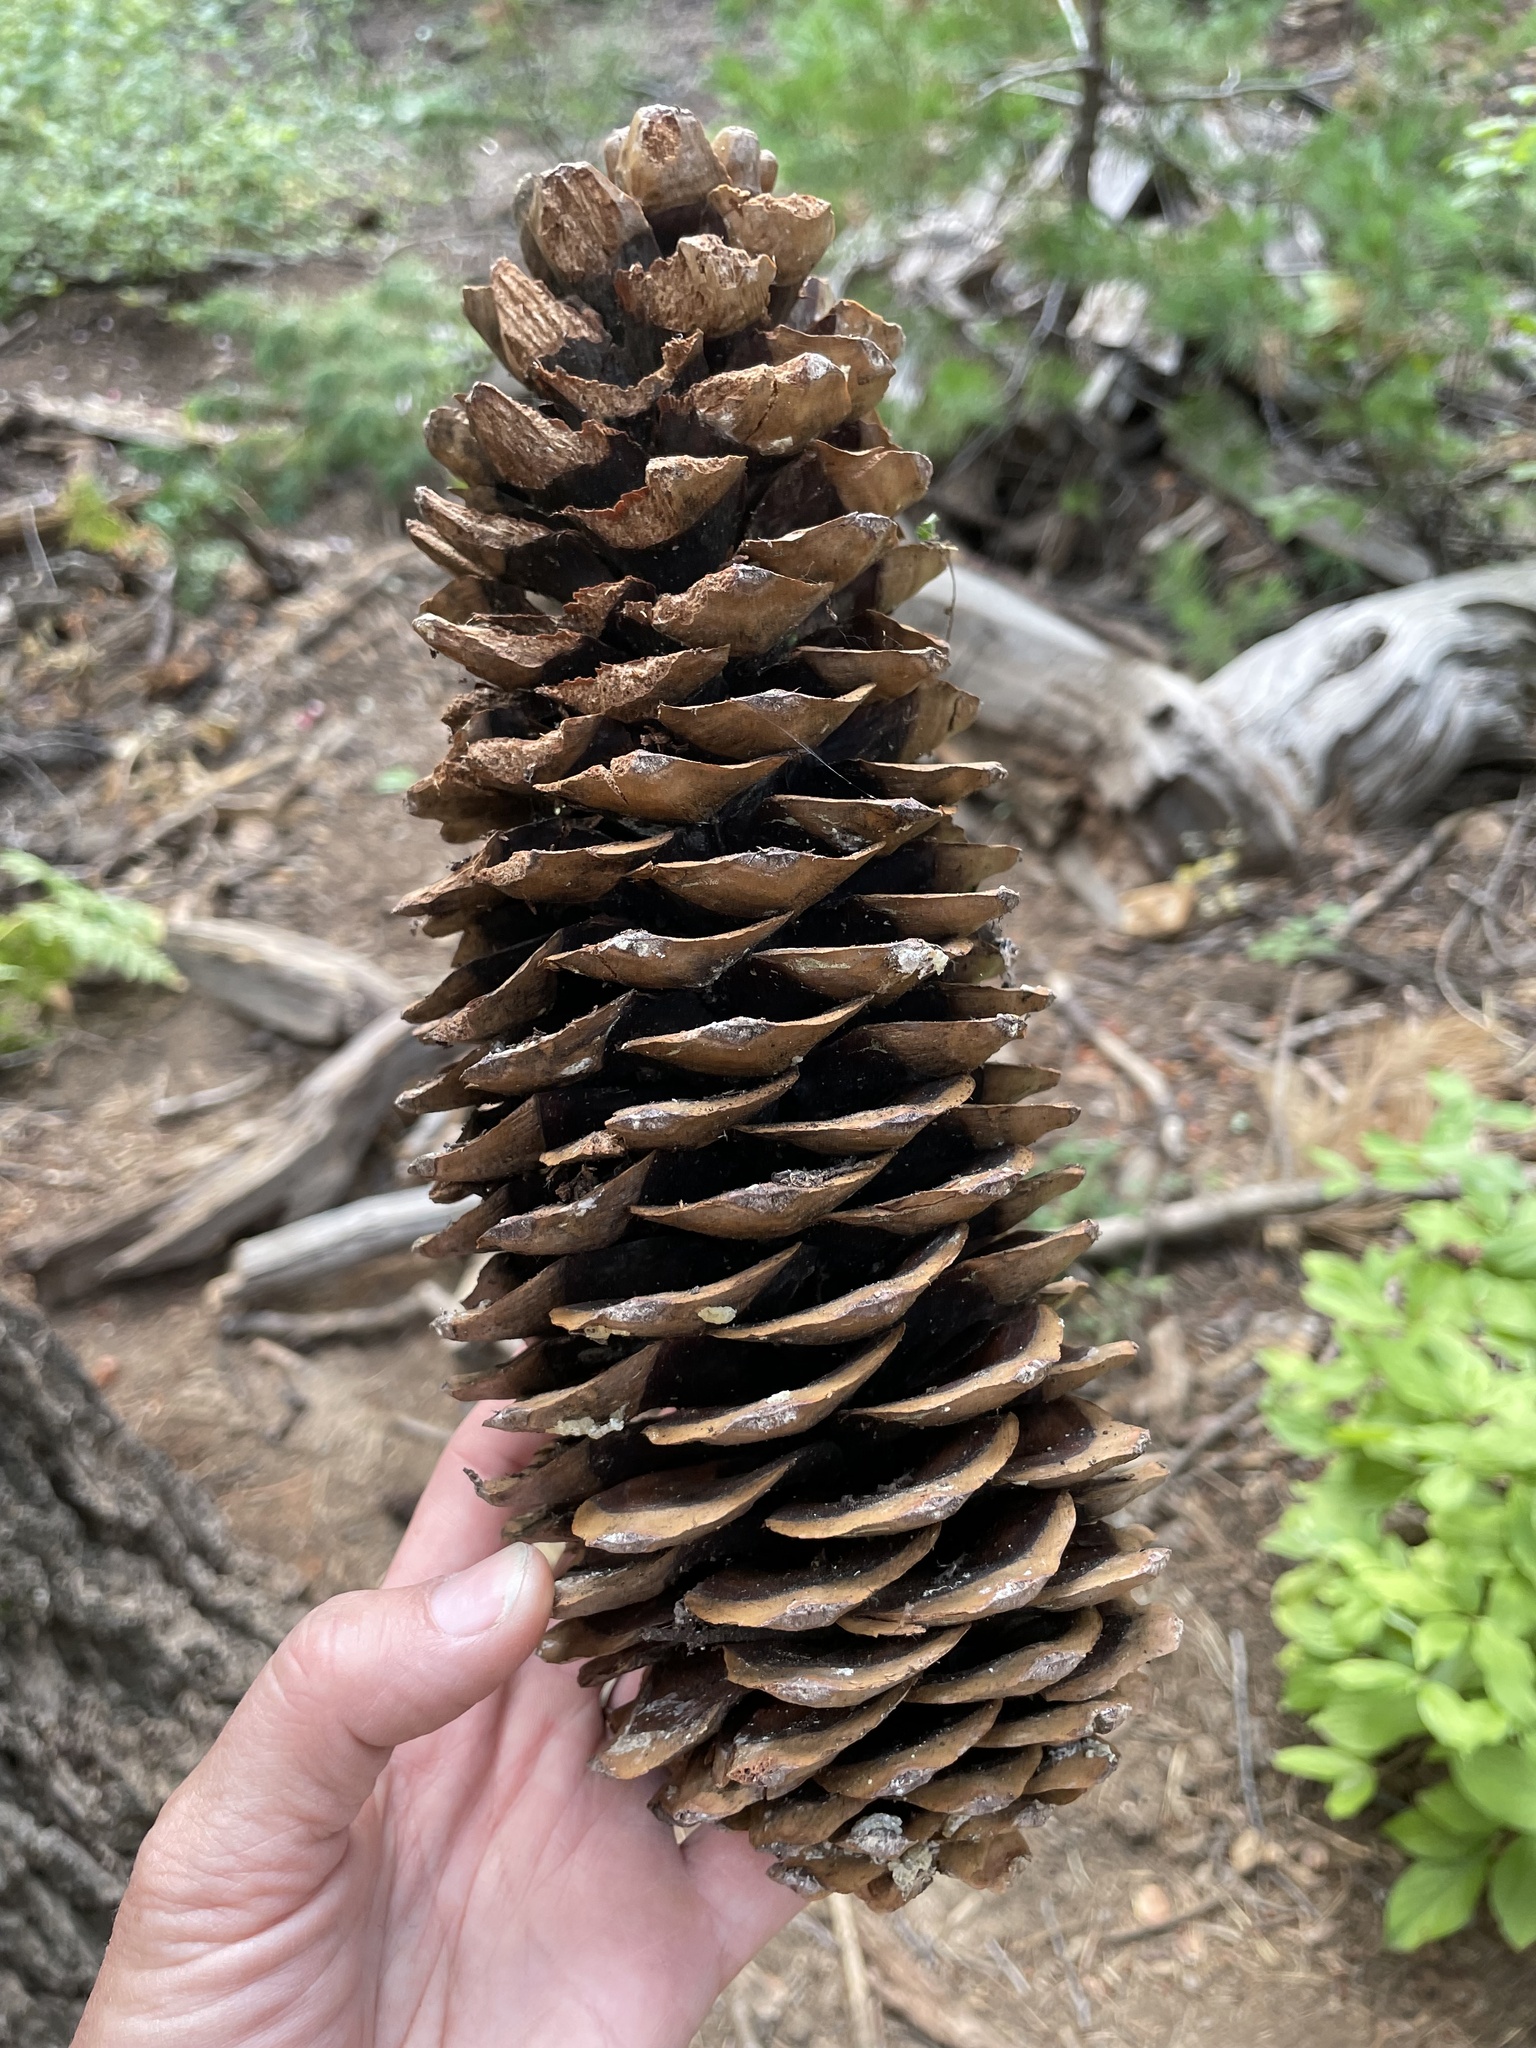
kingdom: Plantae
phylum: Tracheophyta
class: Pinopsida
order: Pinales
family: Pinaceae
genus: Pinus
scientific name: Pinus lambertiana
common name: Sugar pine
